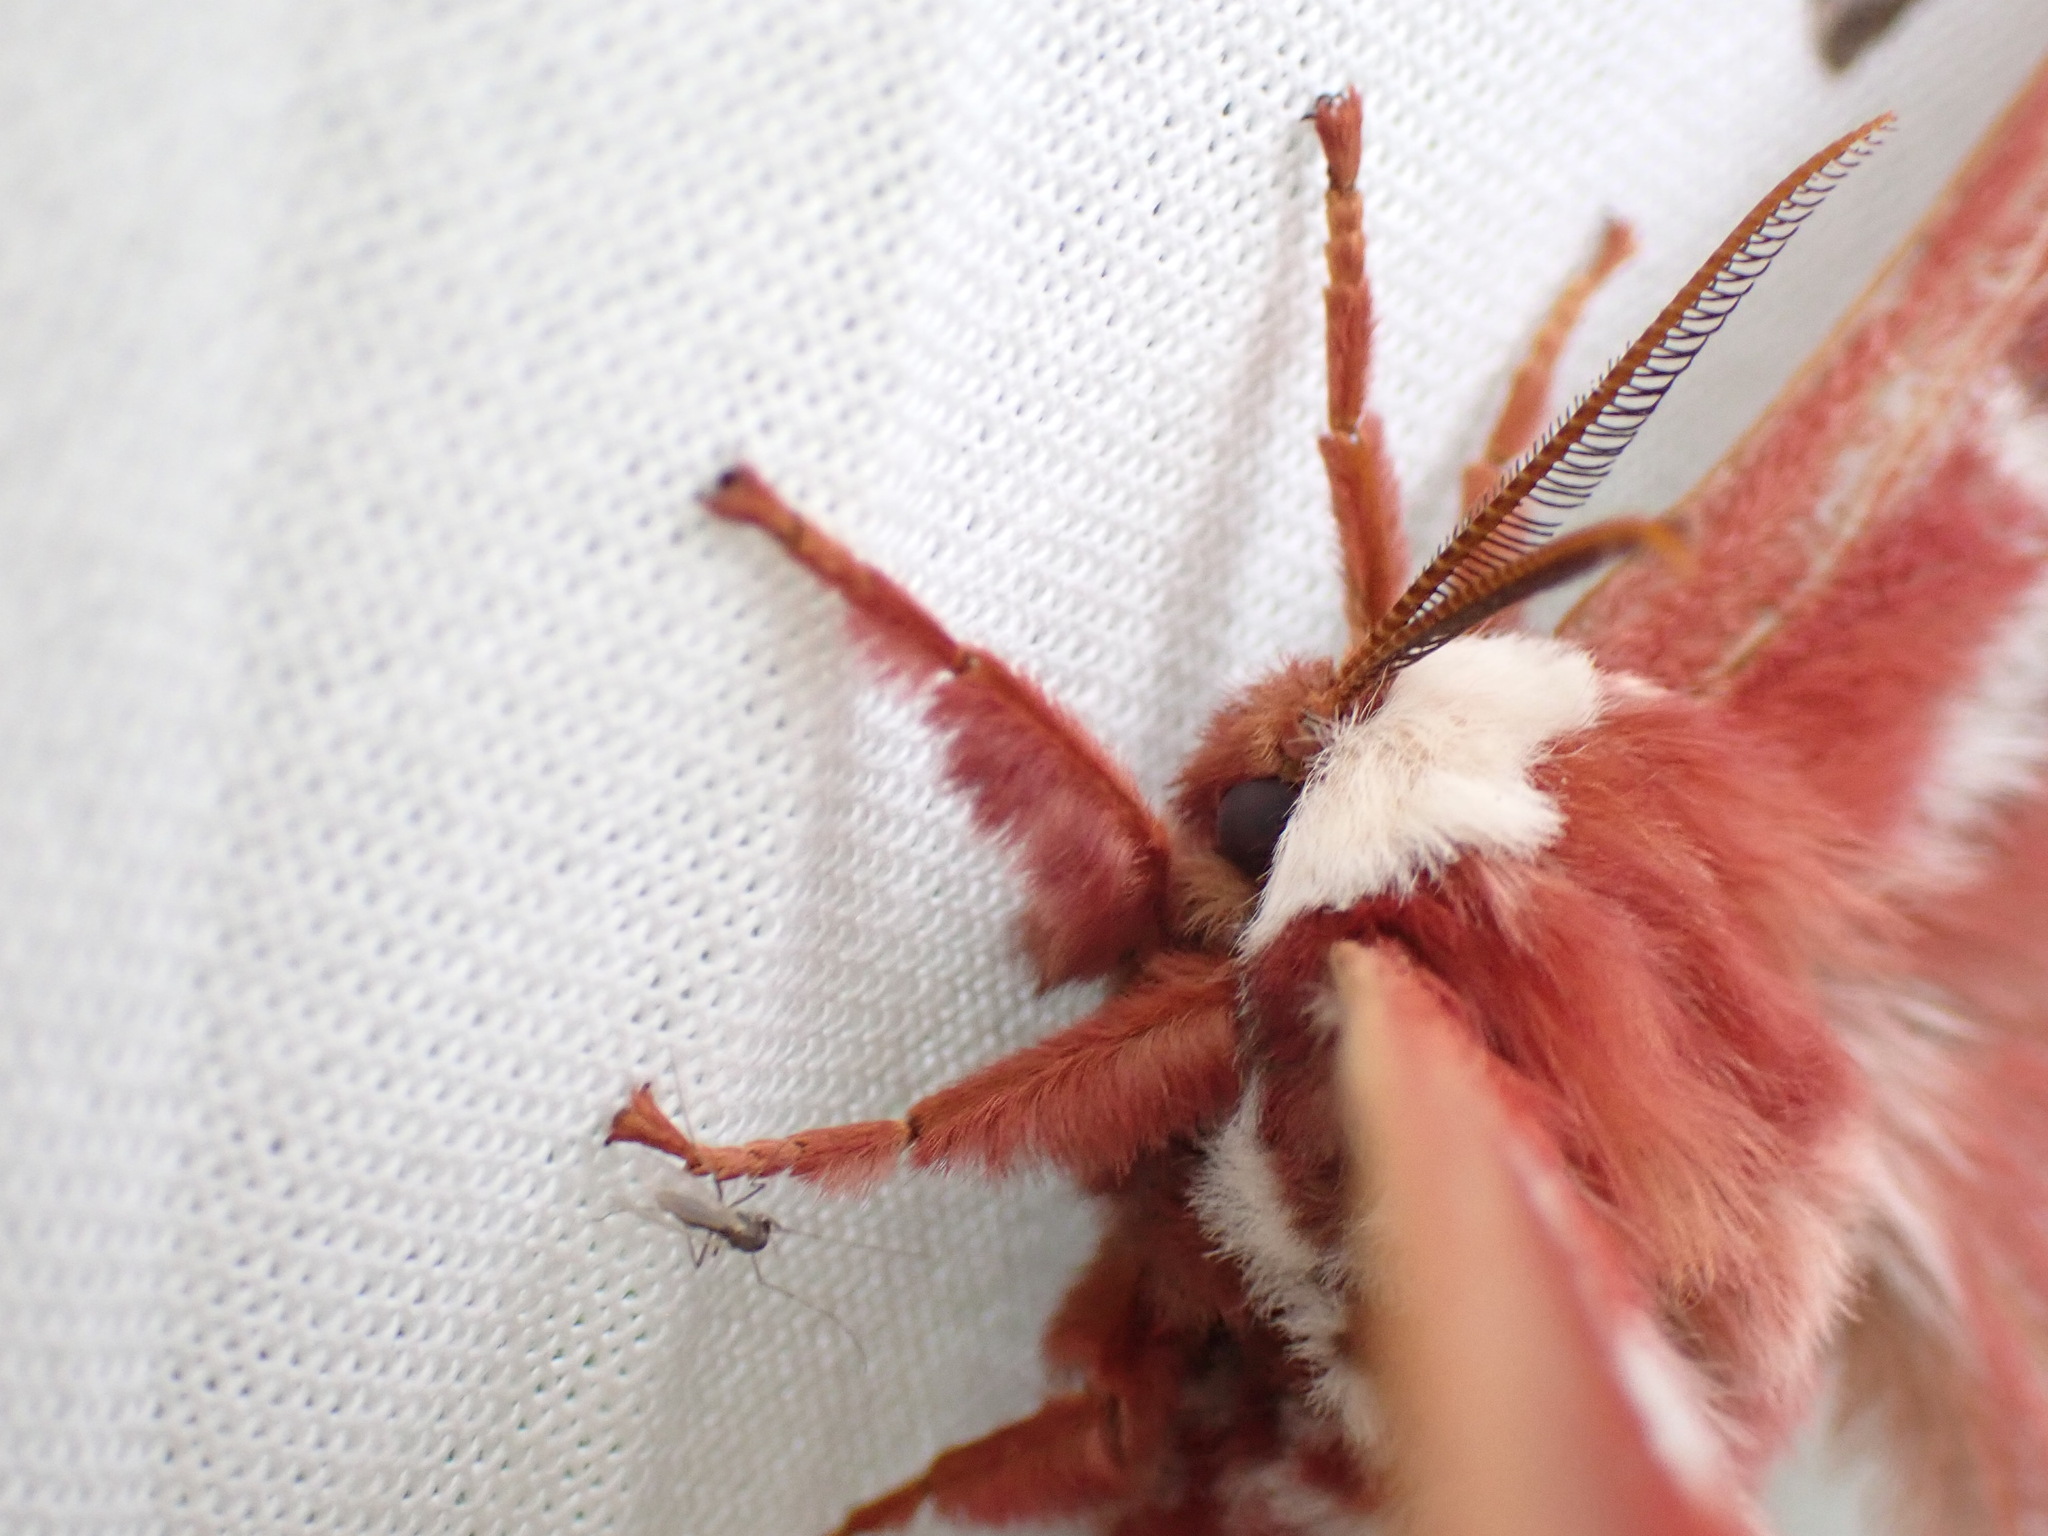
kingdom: Animalia
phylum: Arthropoda
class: Insecta
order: Lepidoptera
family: Saturniidae
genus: Hyalophora
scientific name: Hyalophora euryalus
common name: Ceanothus silkmoth
